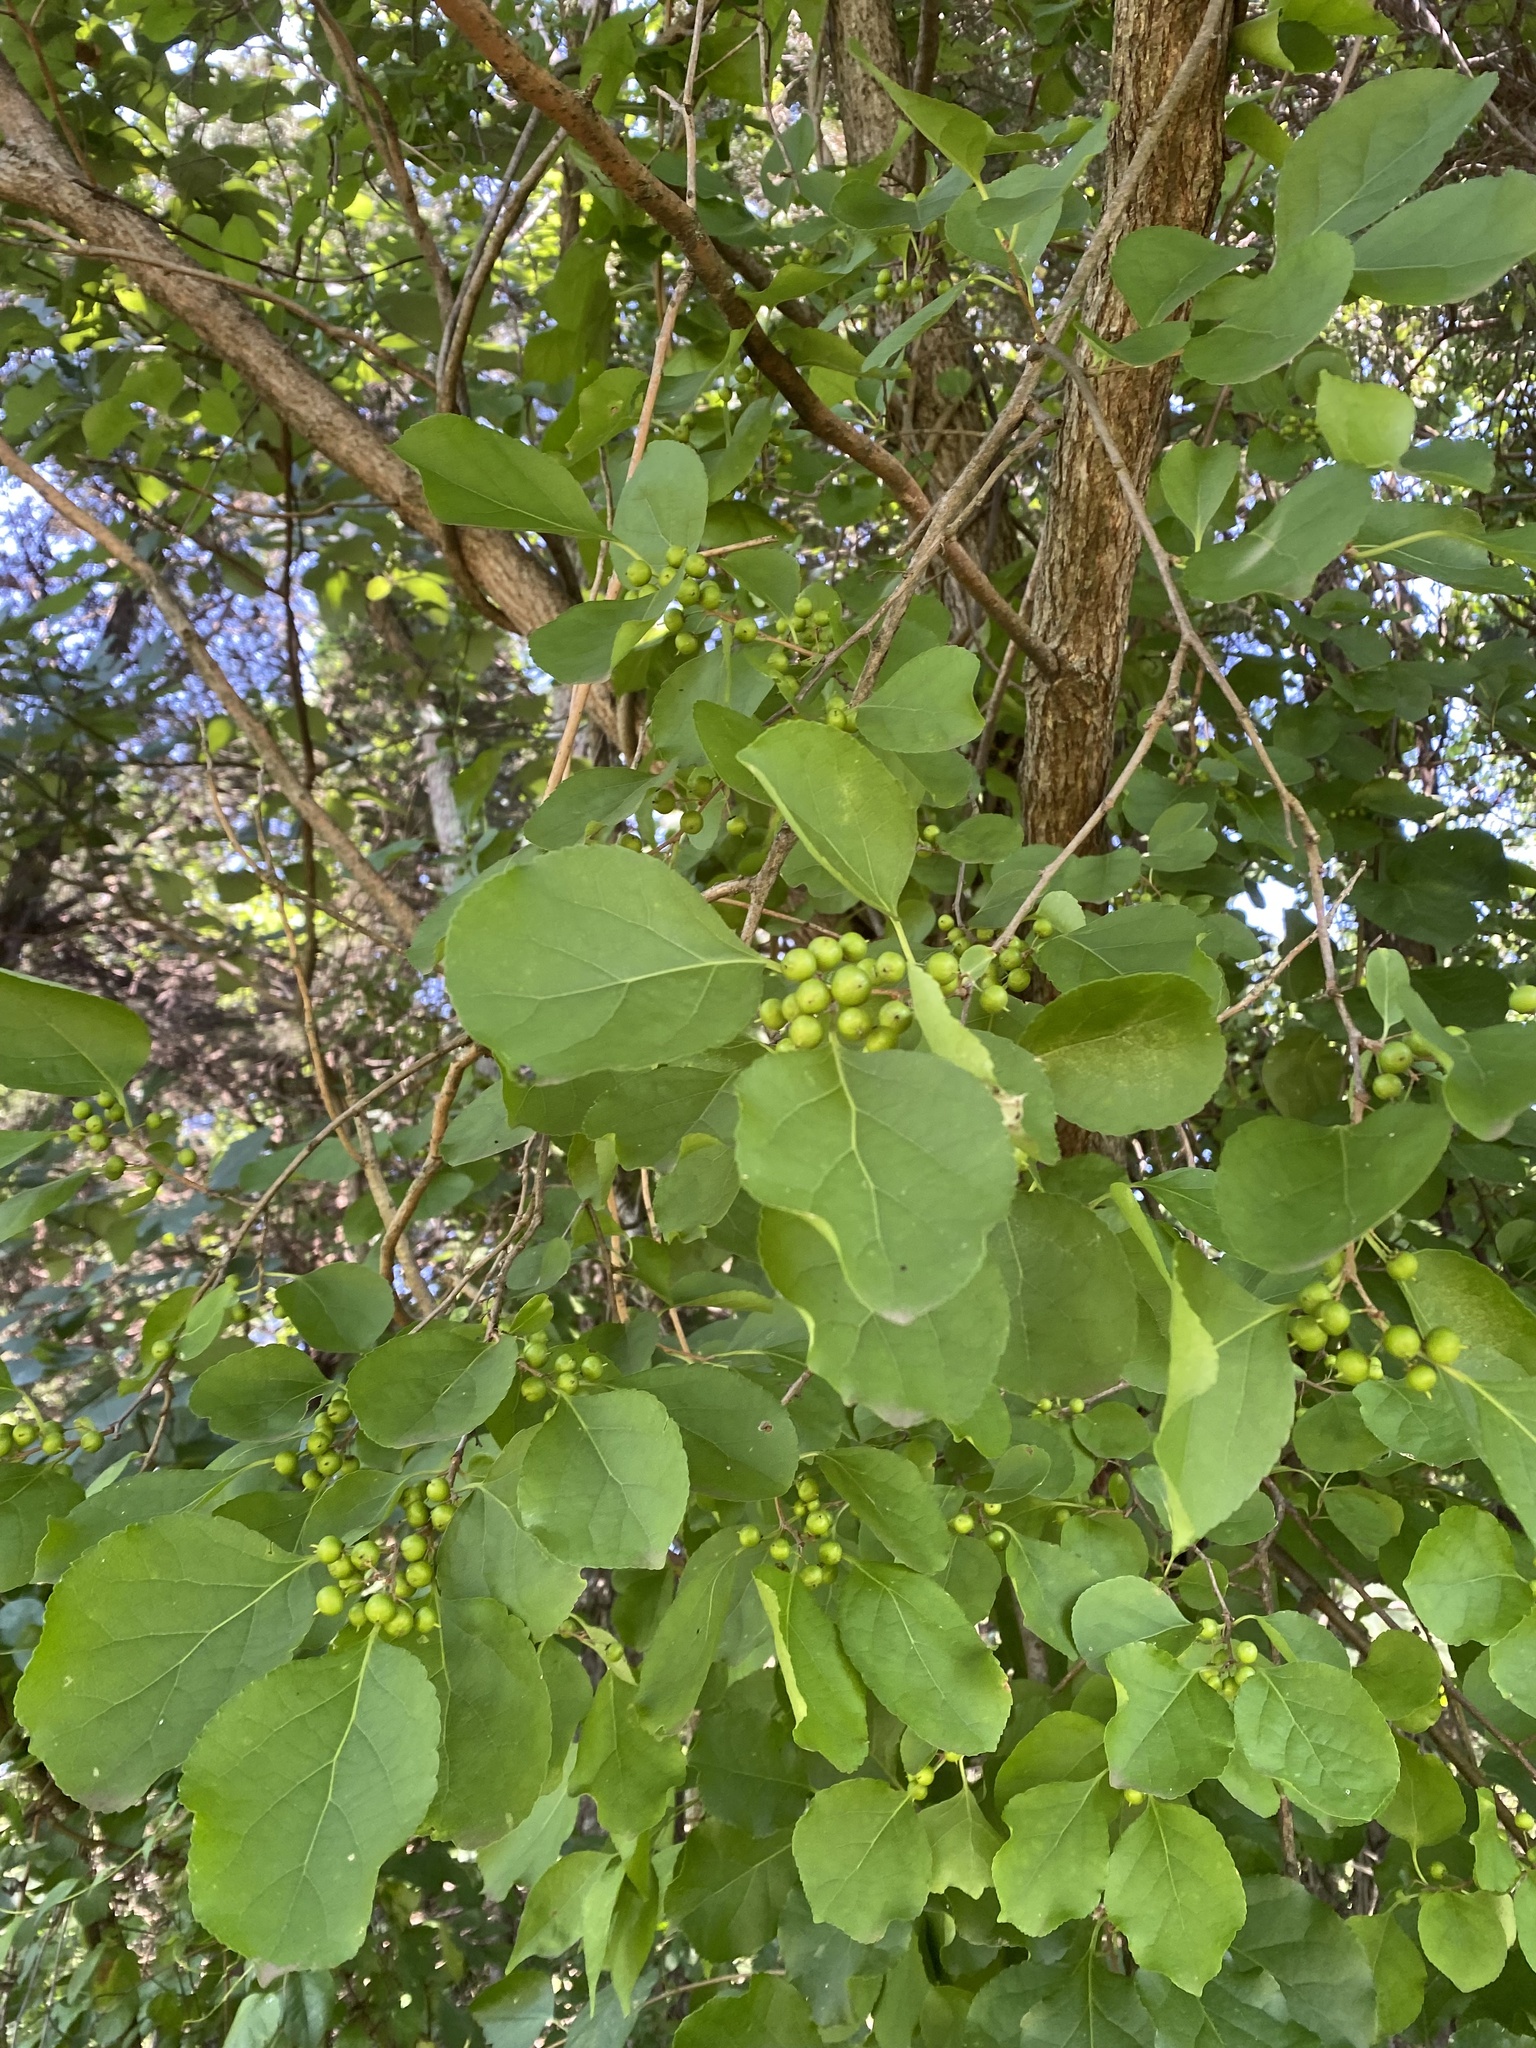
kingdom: Plantae
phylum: Tracheophyta
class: Magnoliopsida
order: Celastrales
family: Celastraceae
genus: Celastrus
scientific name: Celastrus orbiculatus
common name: Oriental bittersweet
